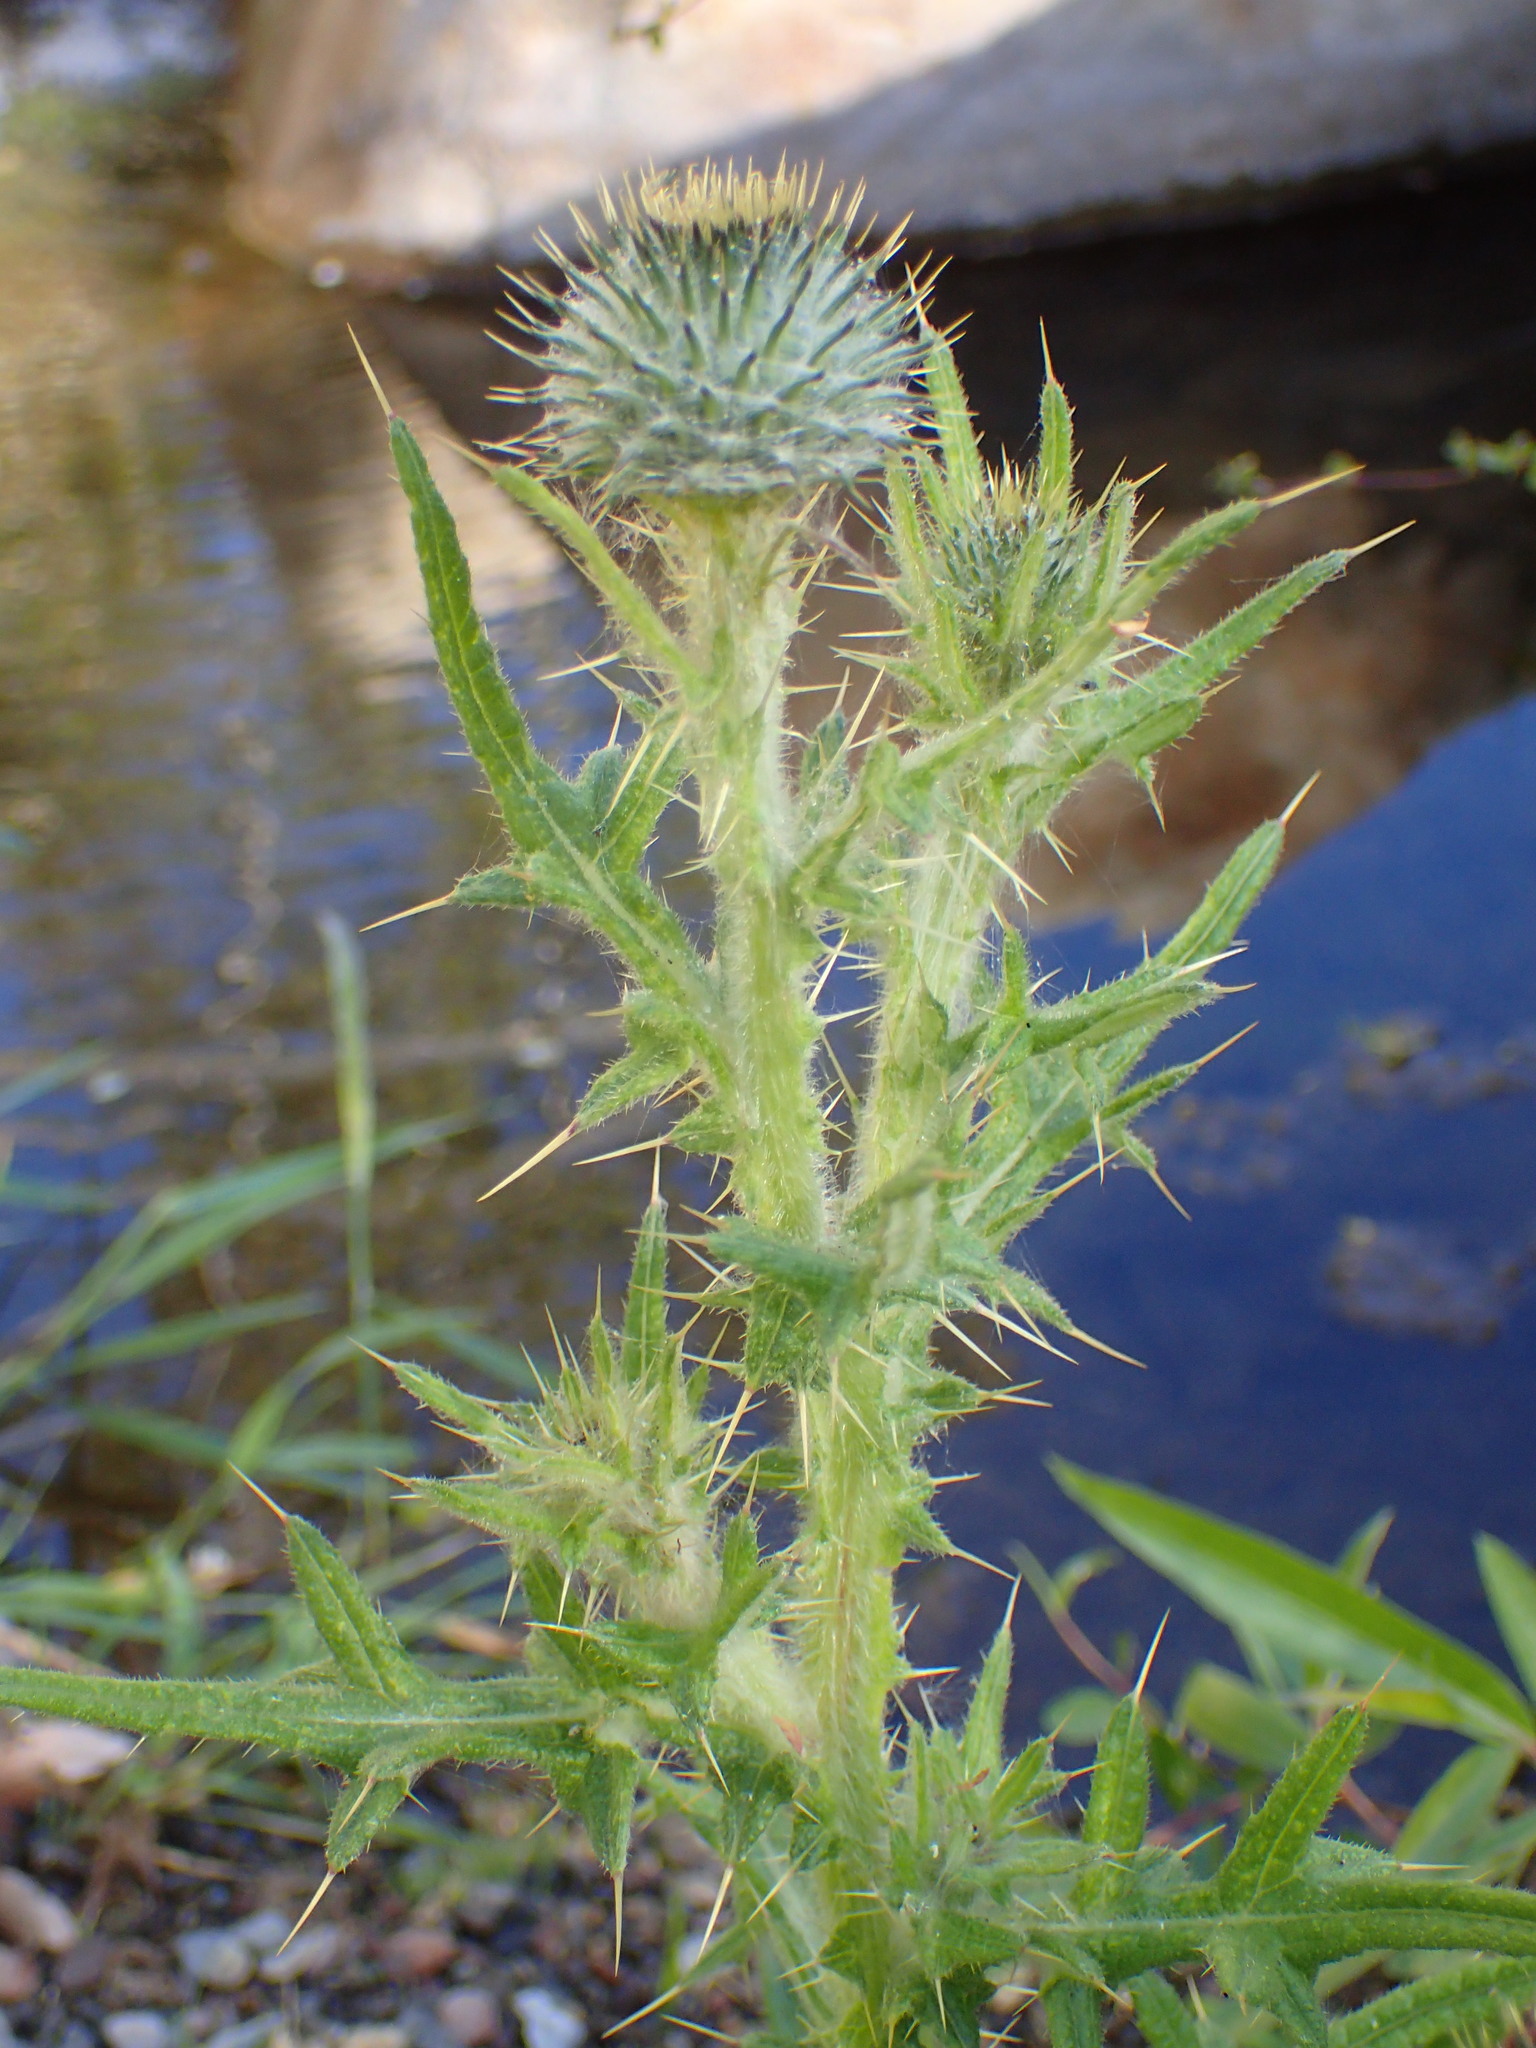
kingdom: Plantae
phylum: Tracheophyta
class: Magnoliopsida
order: Asterales
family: Asteraceae
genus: Cirsium
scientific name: Cirsium vulgare
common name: Bull thistle
